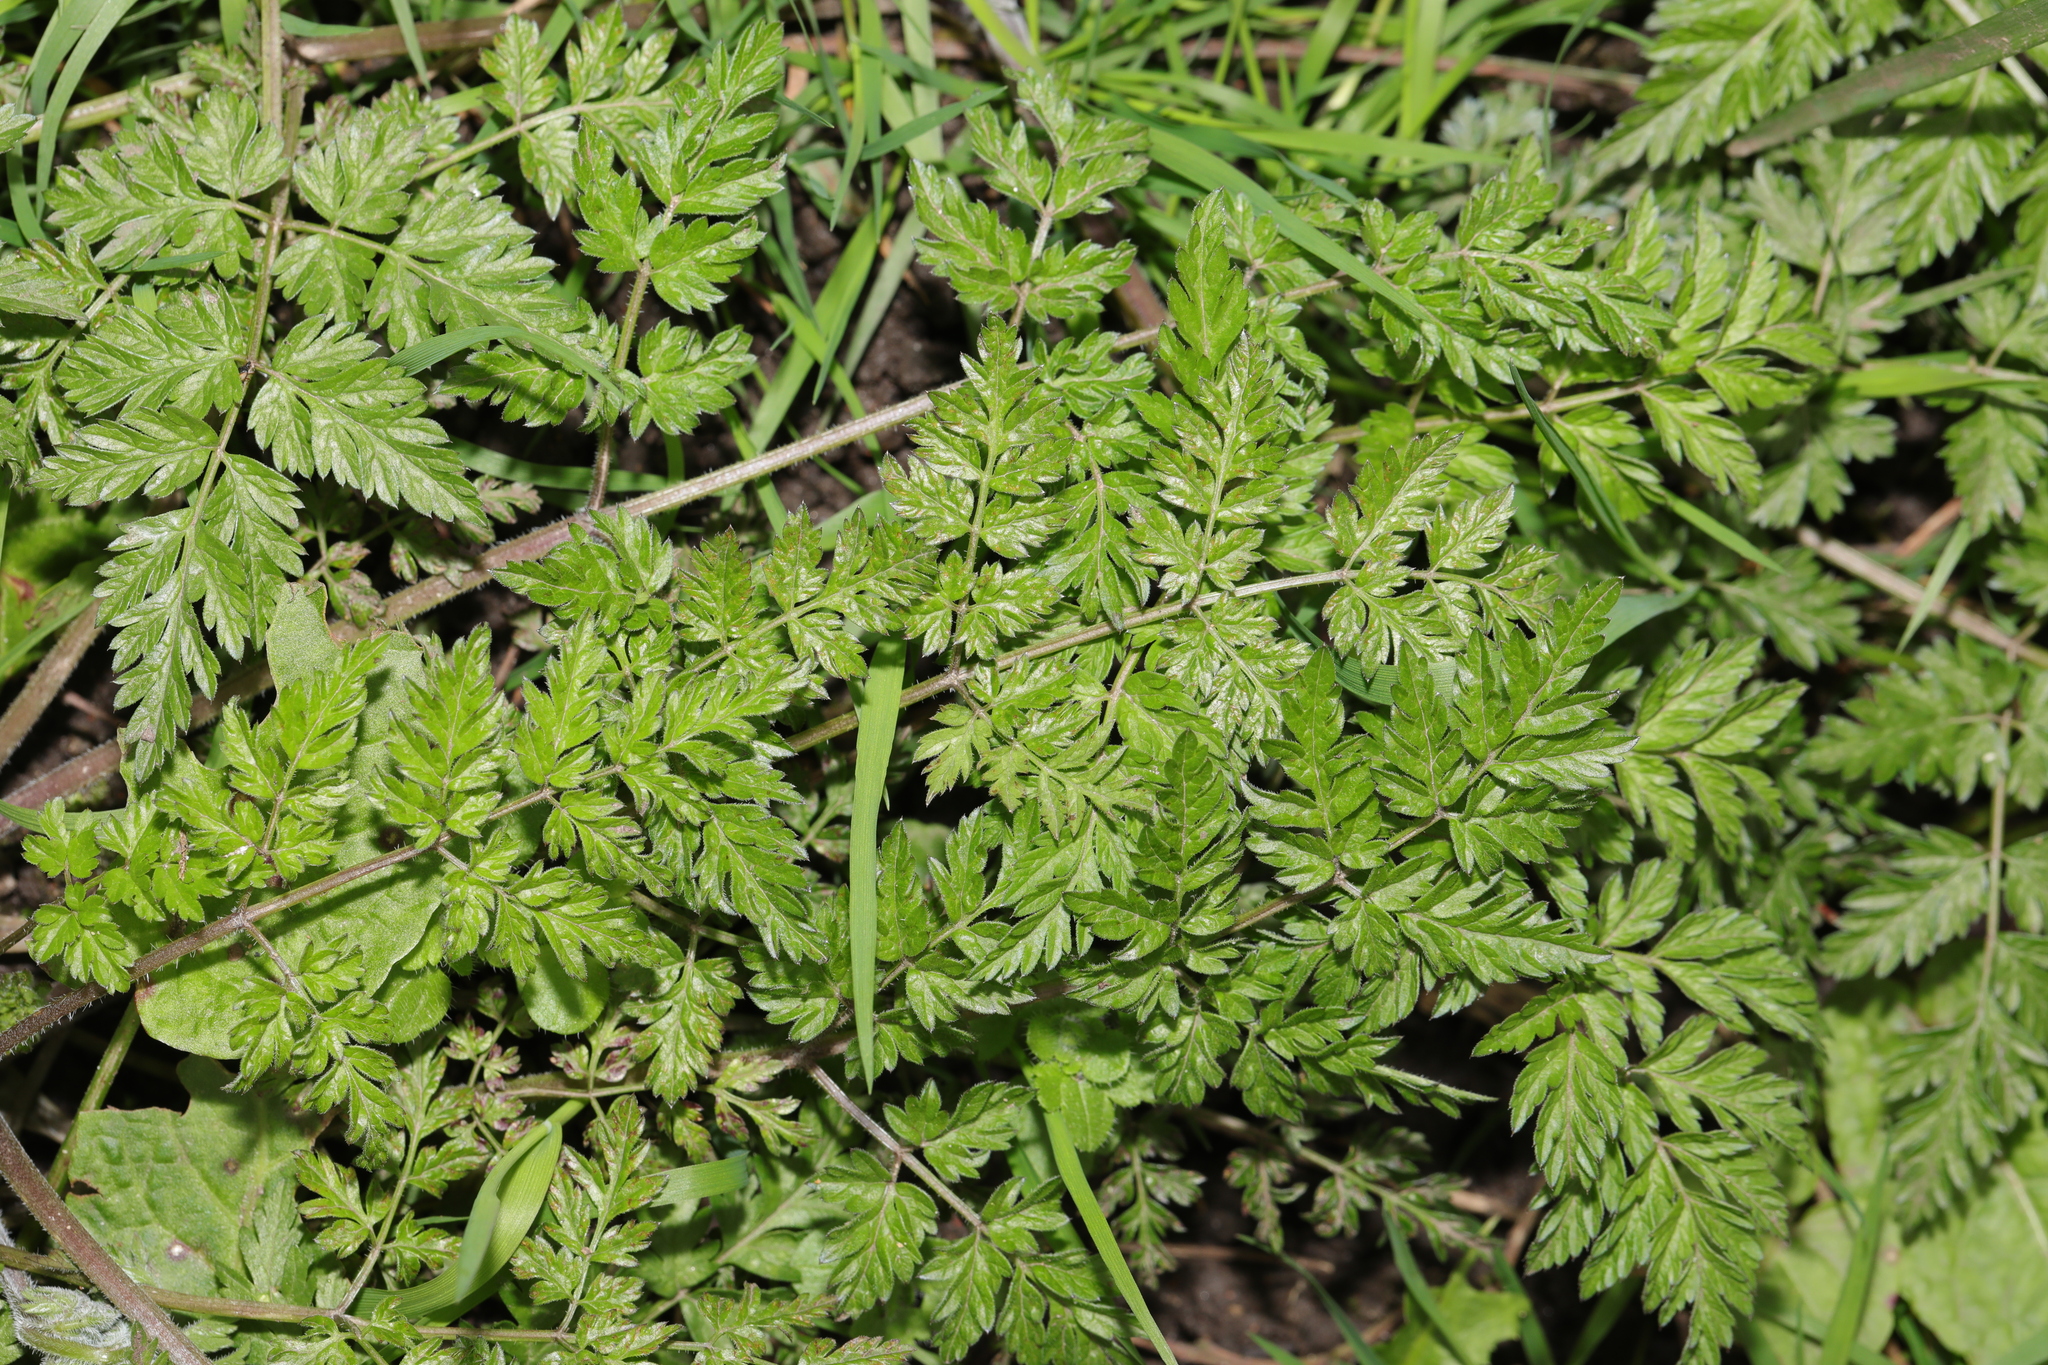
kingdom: Plantae
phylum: Tracheophyta
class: Magnoliopsida
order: Apiales
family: Apiaceae
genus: Anthriscus
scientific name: Anthriscus sylvestris
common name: Cow parsley
